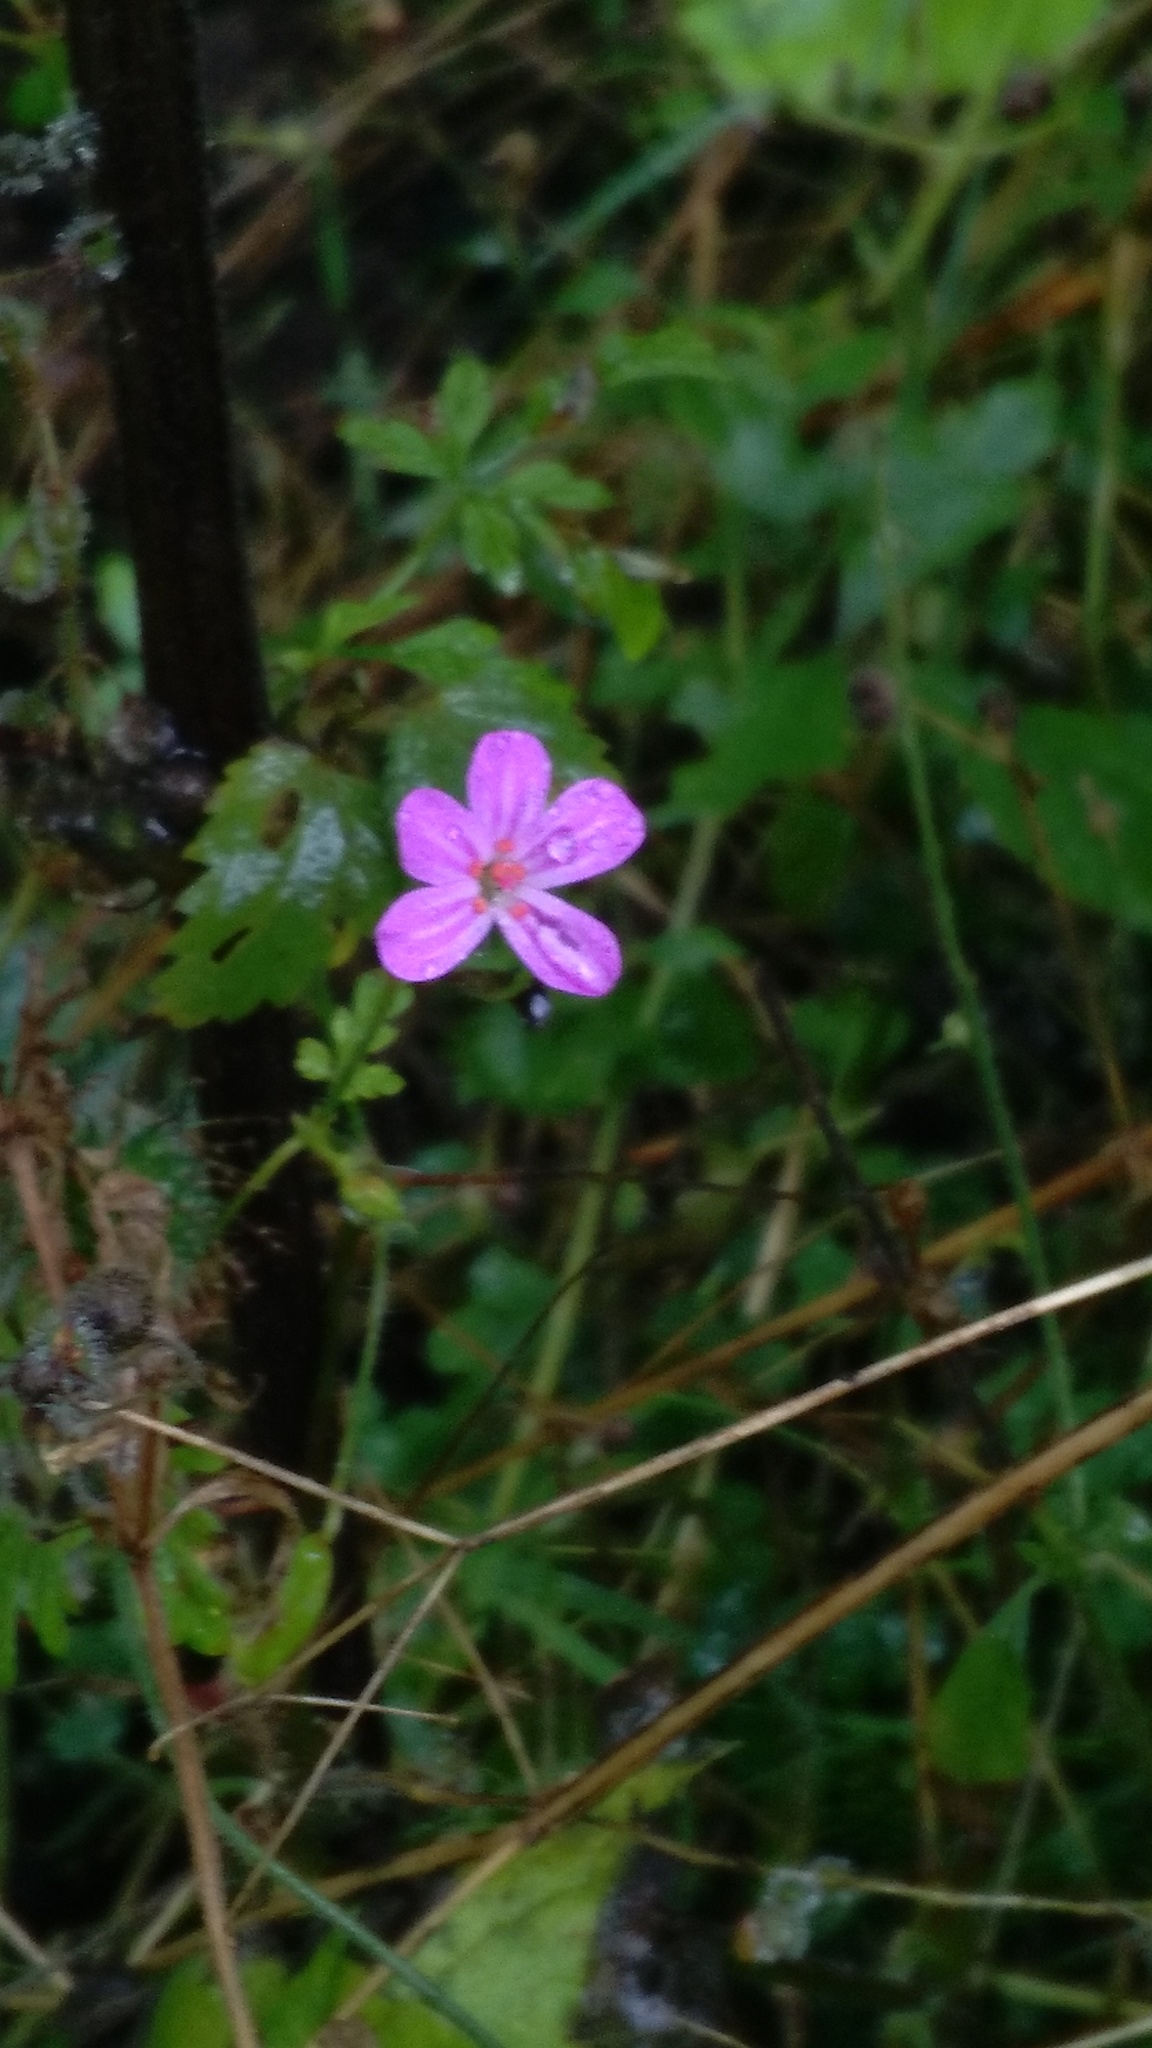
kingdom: Plantae
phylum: Tracheophyta
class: Magnoliopsida
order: Geraniales
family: Geraniaceae
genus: Geranium
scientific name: Geranium robertianum
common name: Herb-robert
